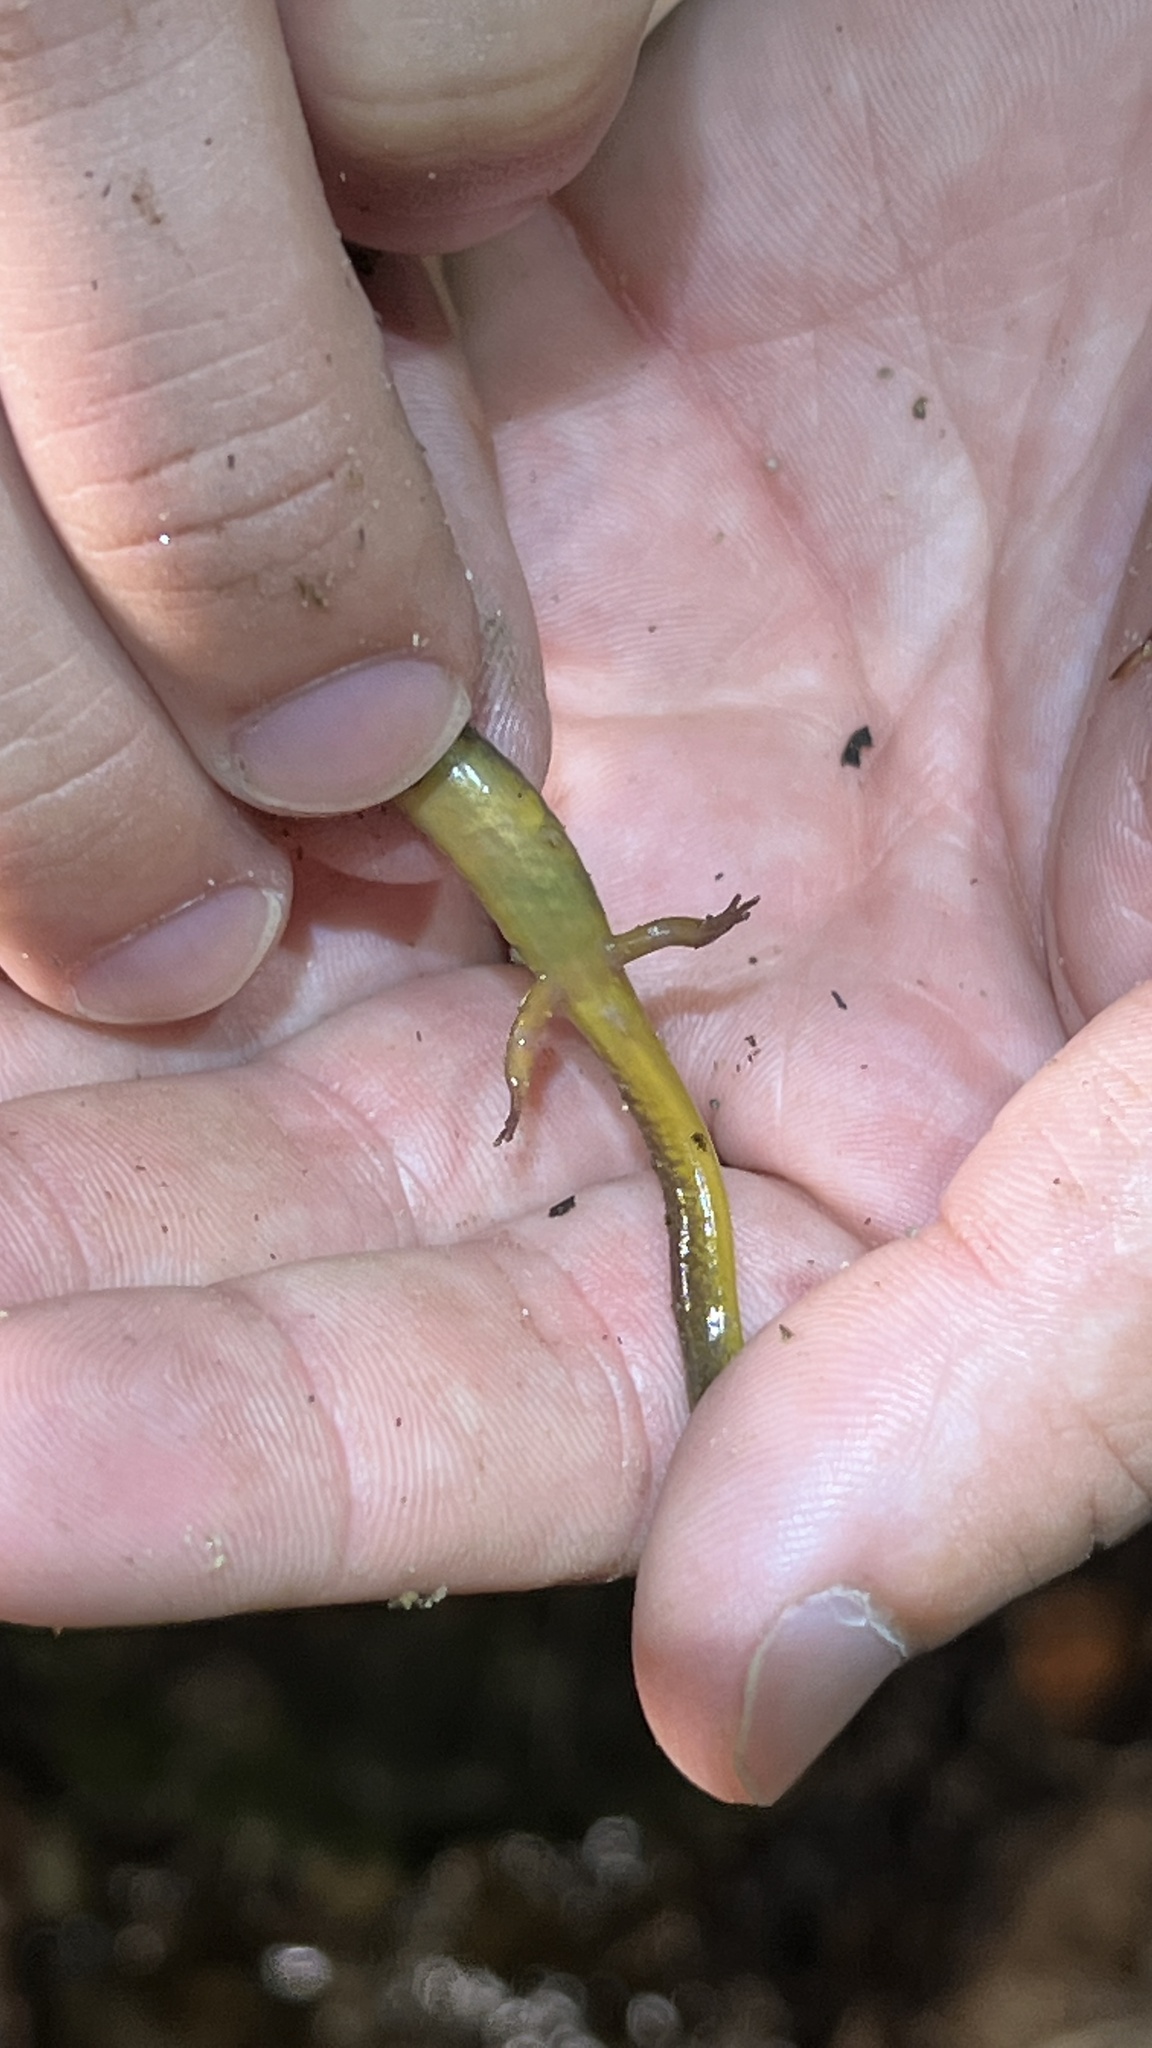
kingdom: Animalia
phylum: Chordata
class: Amphibia
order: Caudata
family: Plethodontidae
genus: Eurycea
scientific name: Eurycea bislineata
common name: Northern two-lined salamander
